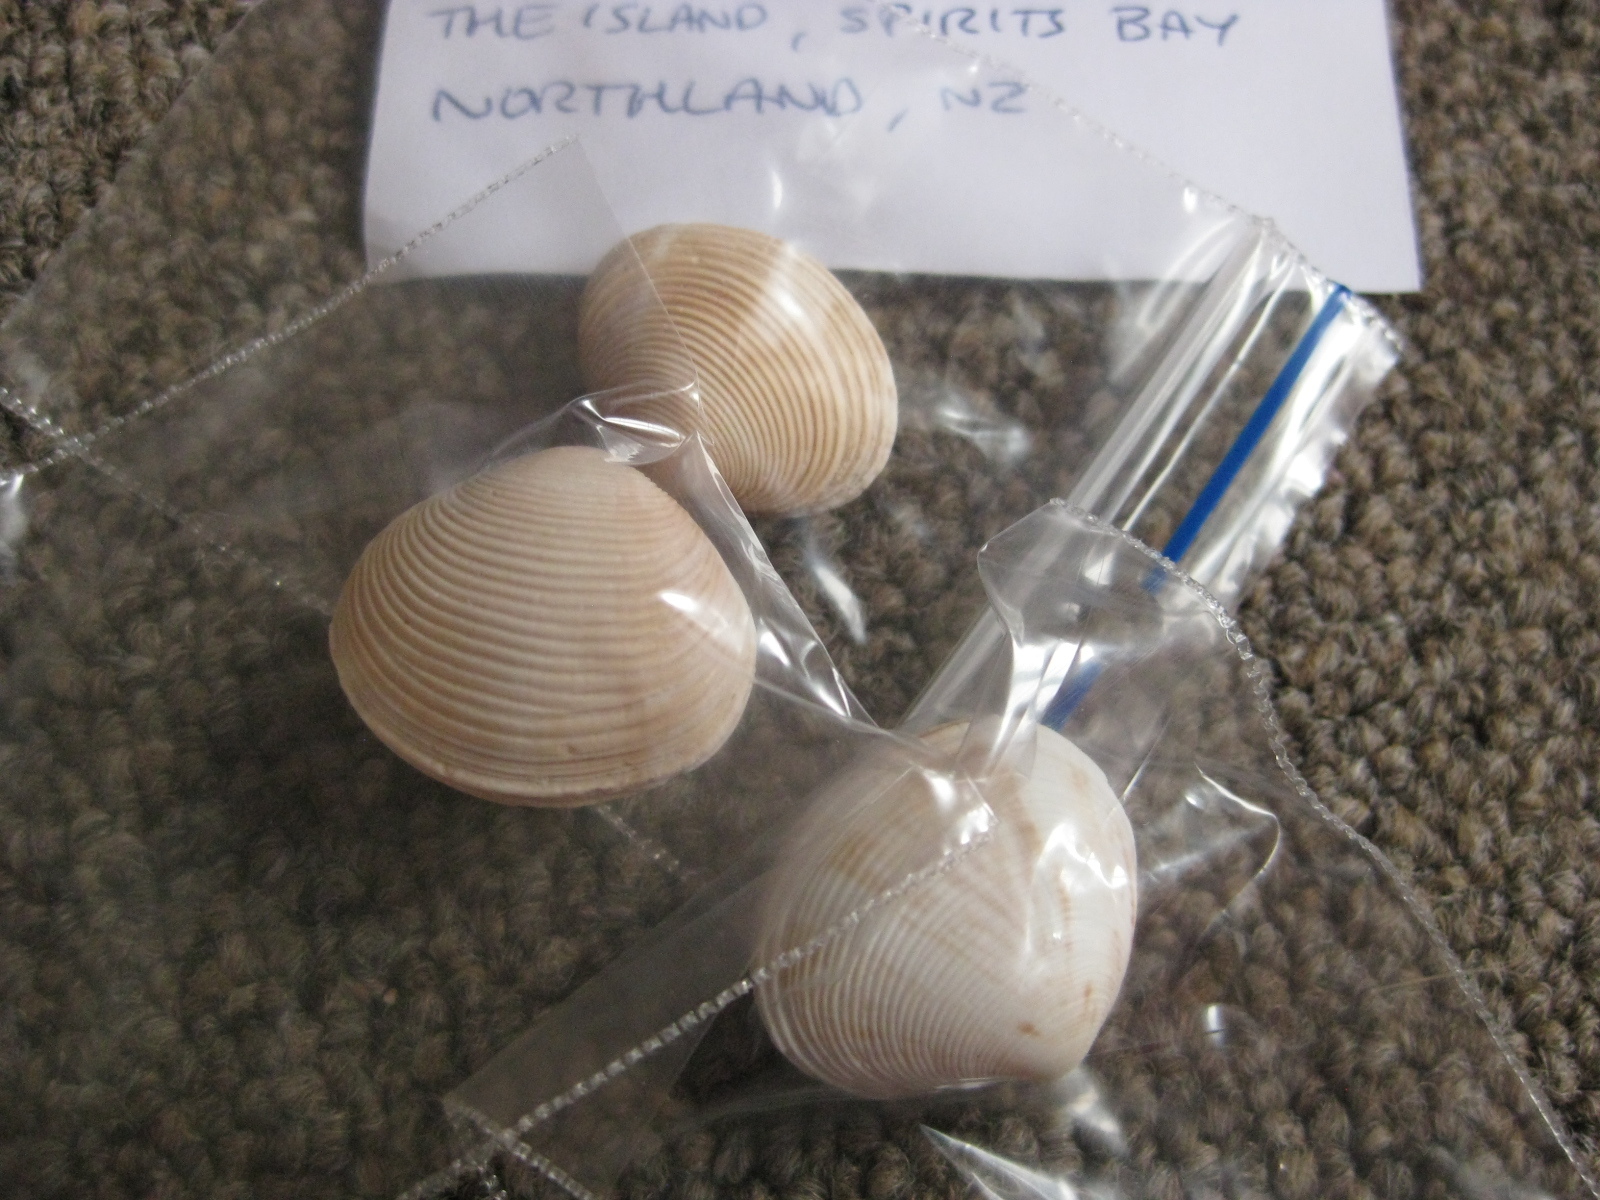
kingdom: Animalia
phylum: Mollusca
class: Bivalvia
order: Venerida
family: Veneridae
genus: Tawera
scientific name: Tawera spissa
